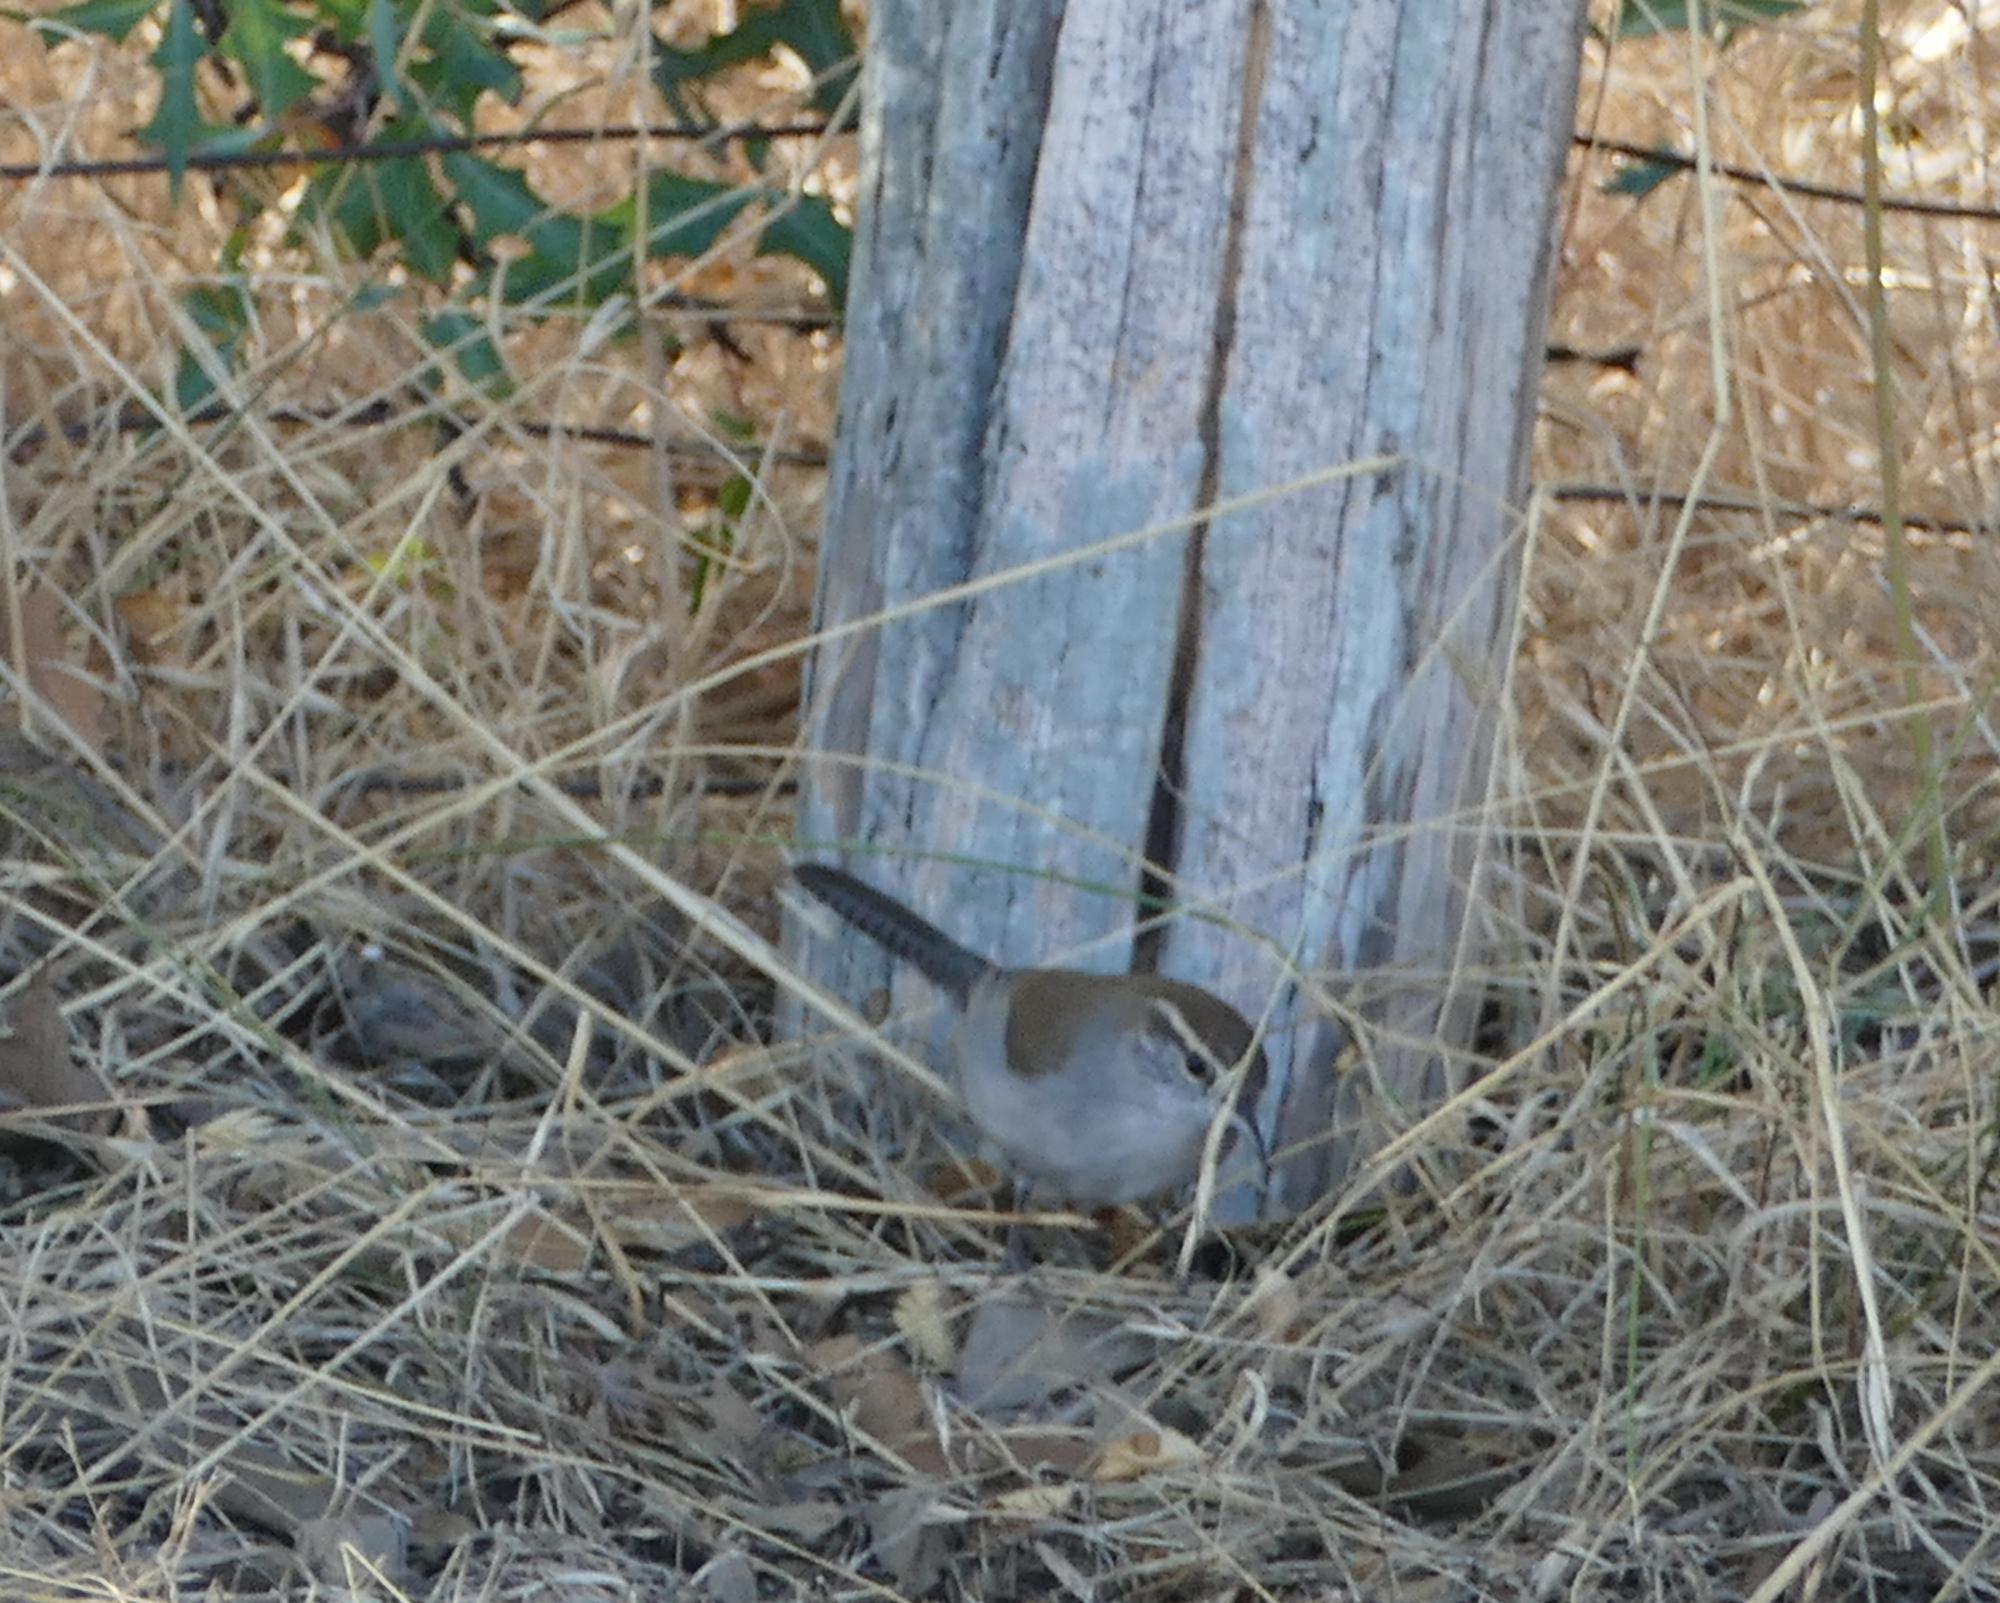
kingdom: Animalia
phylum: Chordata
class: Aves
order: Passeriformes
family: Troglodytidae
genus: Thryomanes
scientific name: Thryomanes bewickii
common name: Bewick's wren
